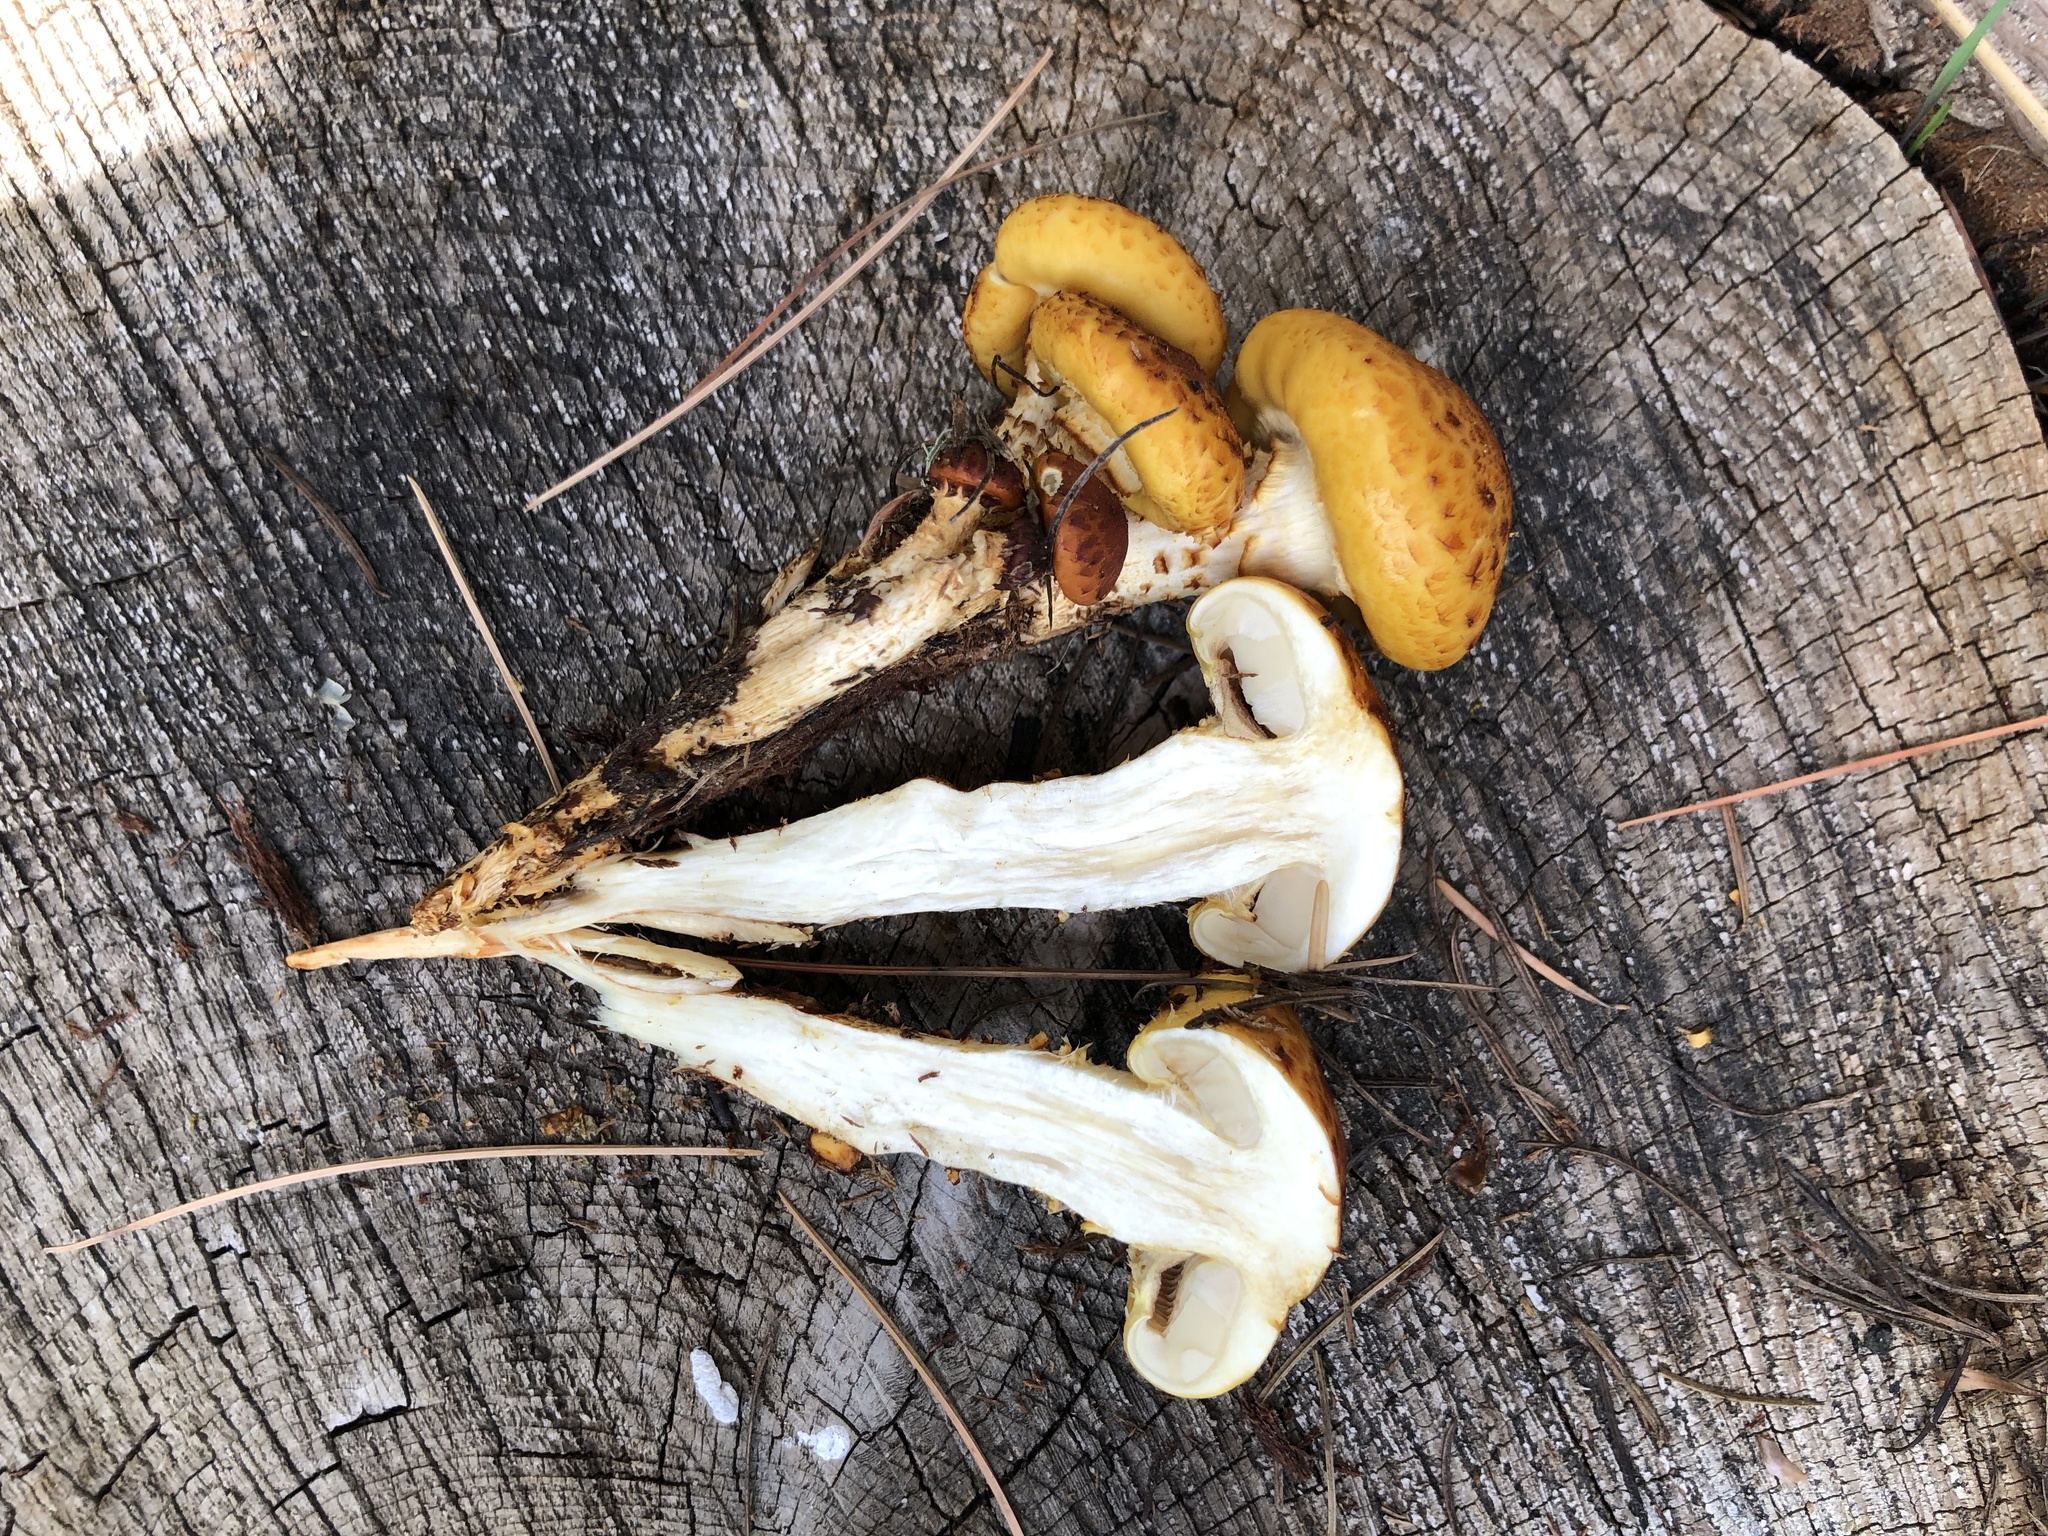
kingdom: Fungi
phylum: Basidiomycota
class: Agaricomycetes
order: Agaricales
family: Strophariaceae
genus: Pholiota
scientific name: Pholiota adiposa
